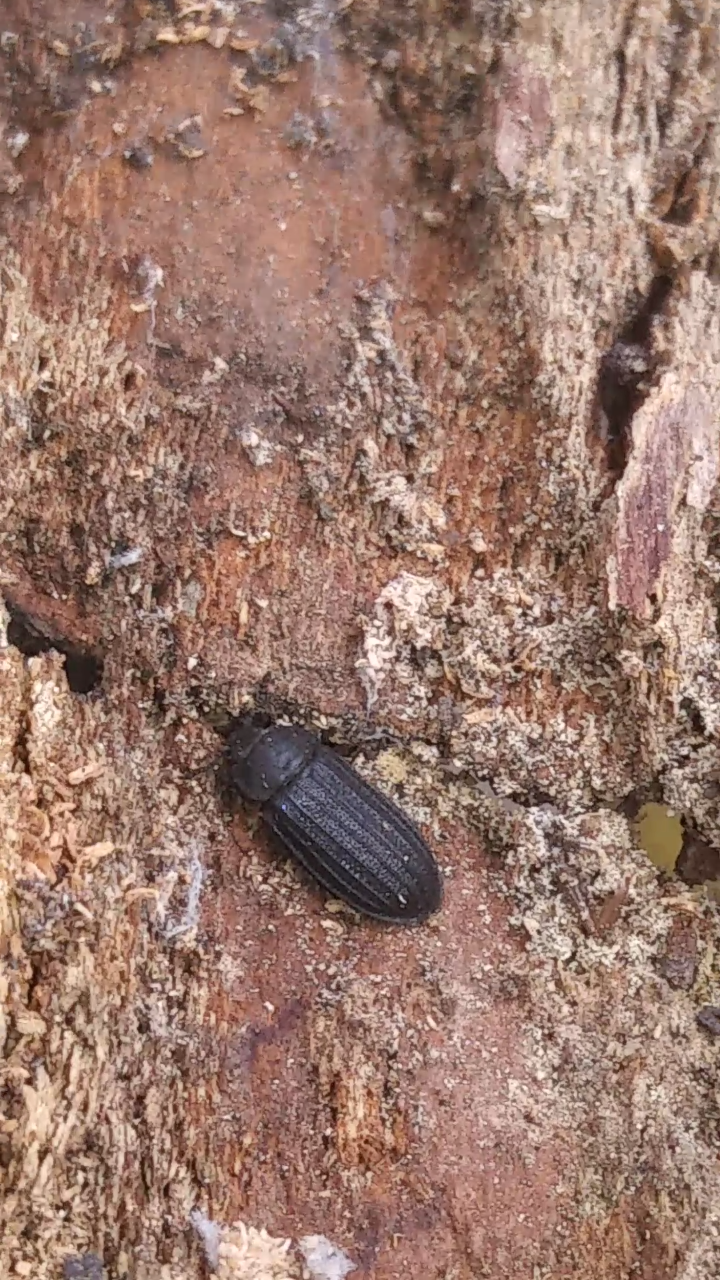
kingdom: Animalia
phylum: Arthropoda
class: Insecta
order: Coleoptera
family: Trogossitidae
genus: Grynocharis
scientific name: Grynocharis quadrilineata
